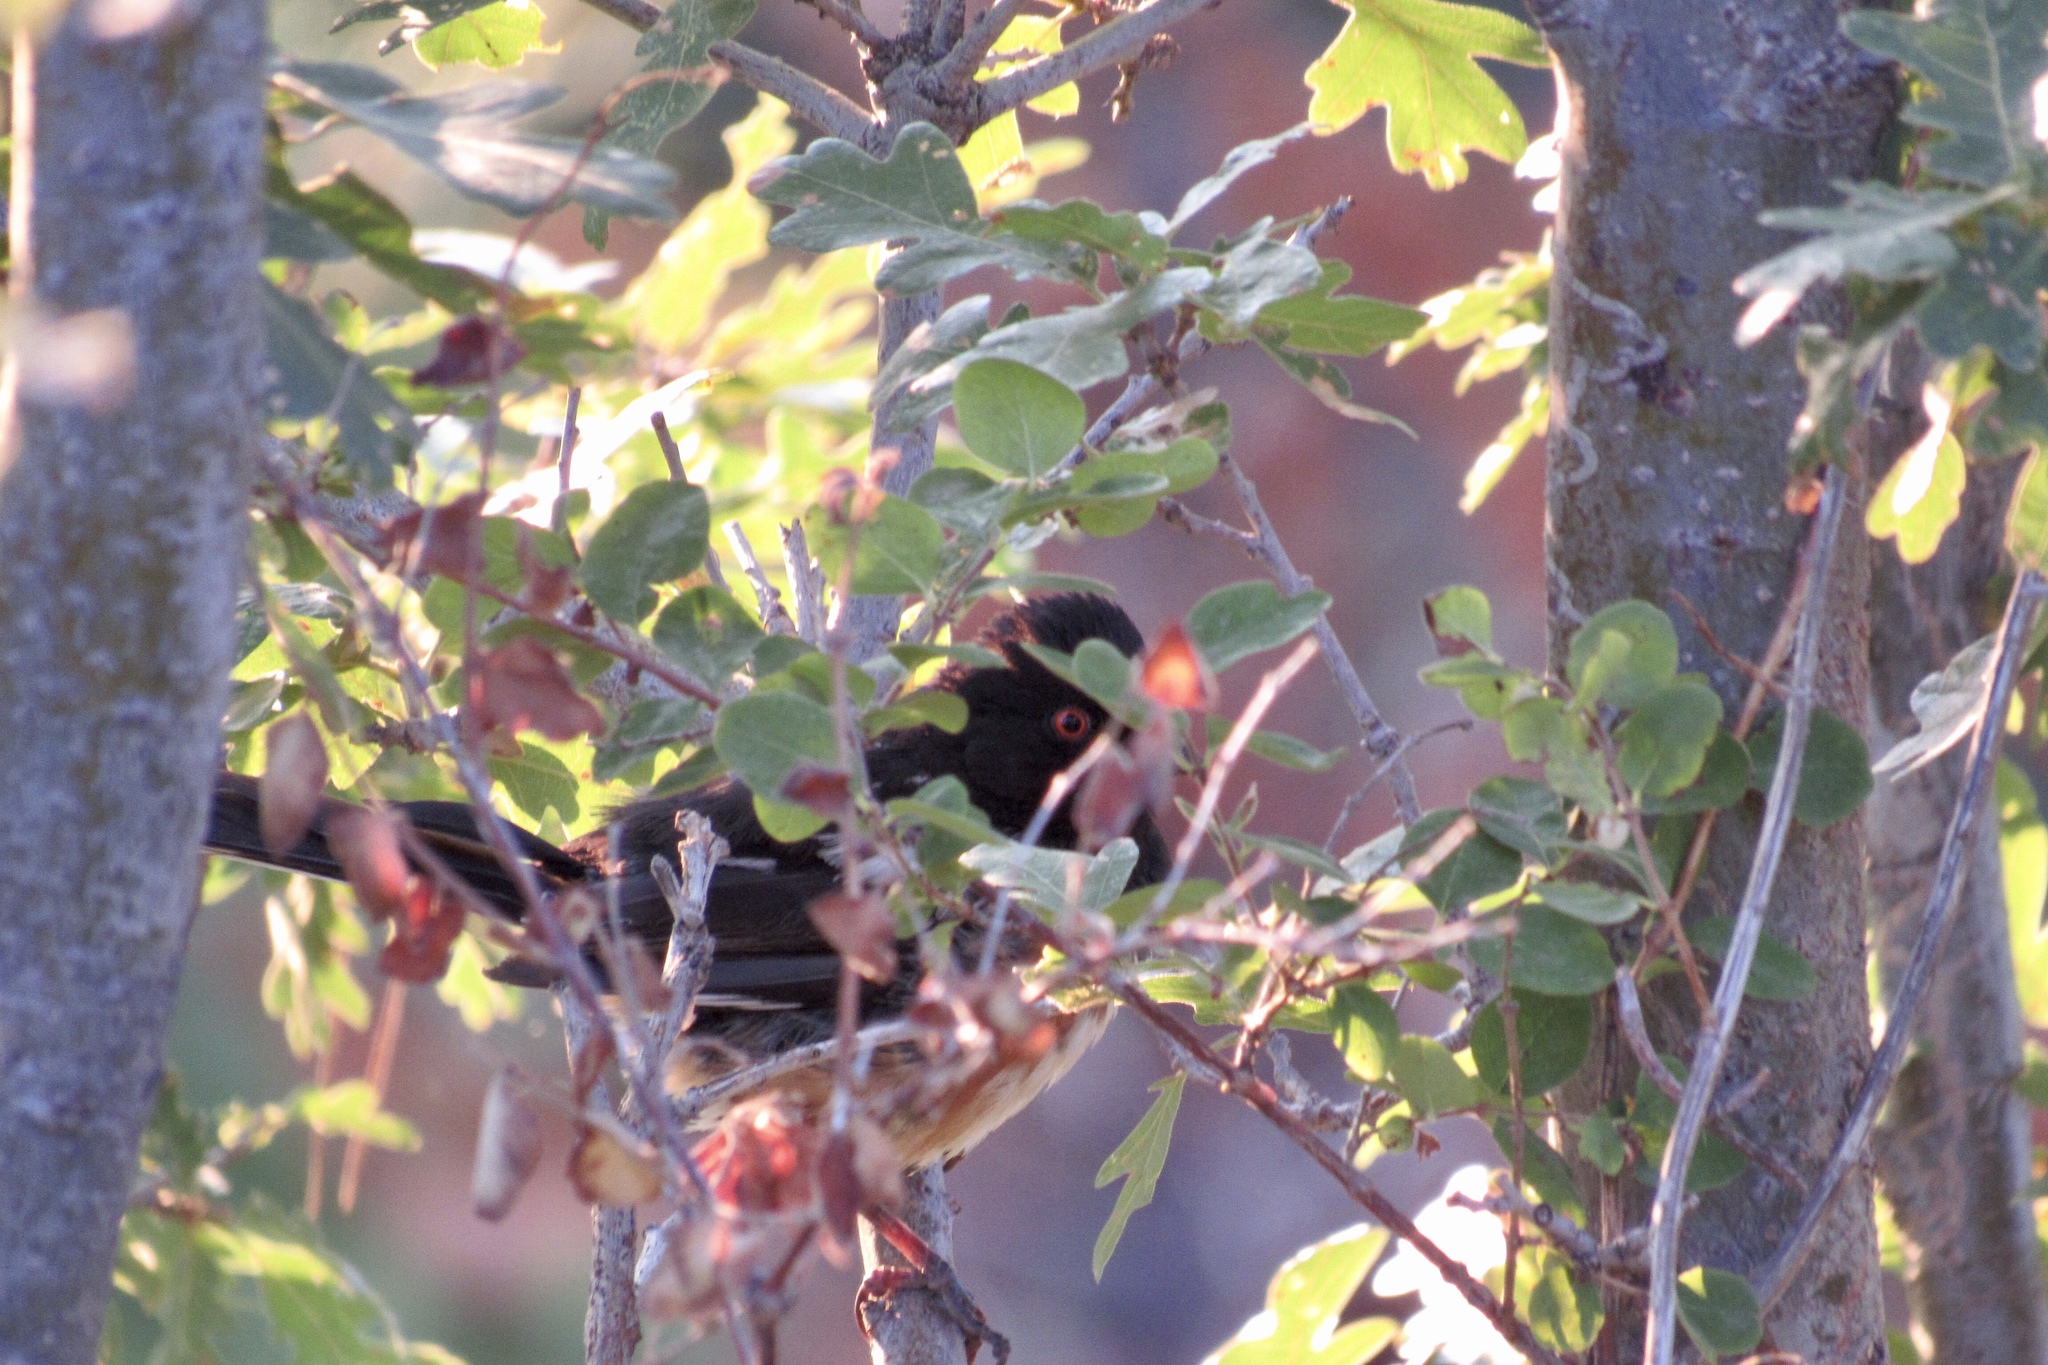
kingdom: Animalia
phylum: Chordata
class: Aves
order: Passeriformes
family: Passerellidae
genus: Pipilo
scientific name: Pipilo maculatus
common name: Spotted towhee
